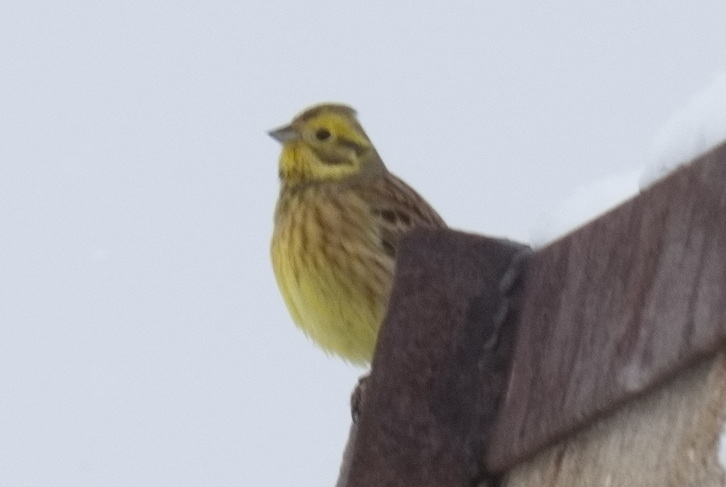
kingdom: Animalia
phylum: Chordata
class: Aves
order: Passeriformes
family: Emberizidae
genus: Emberiza
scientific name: Emberiza citrinella
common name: Yellowhammer
